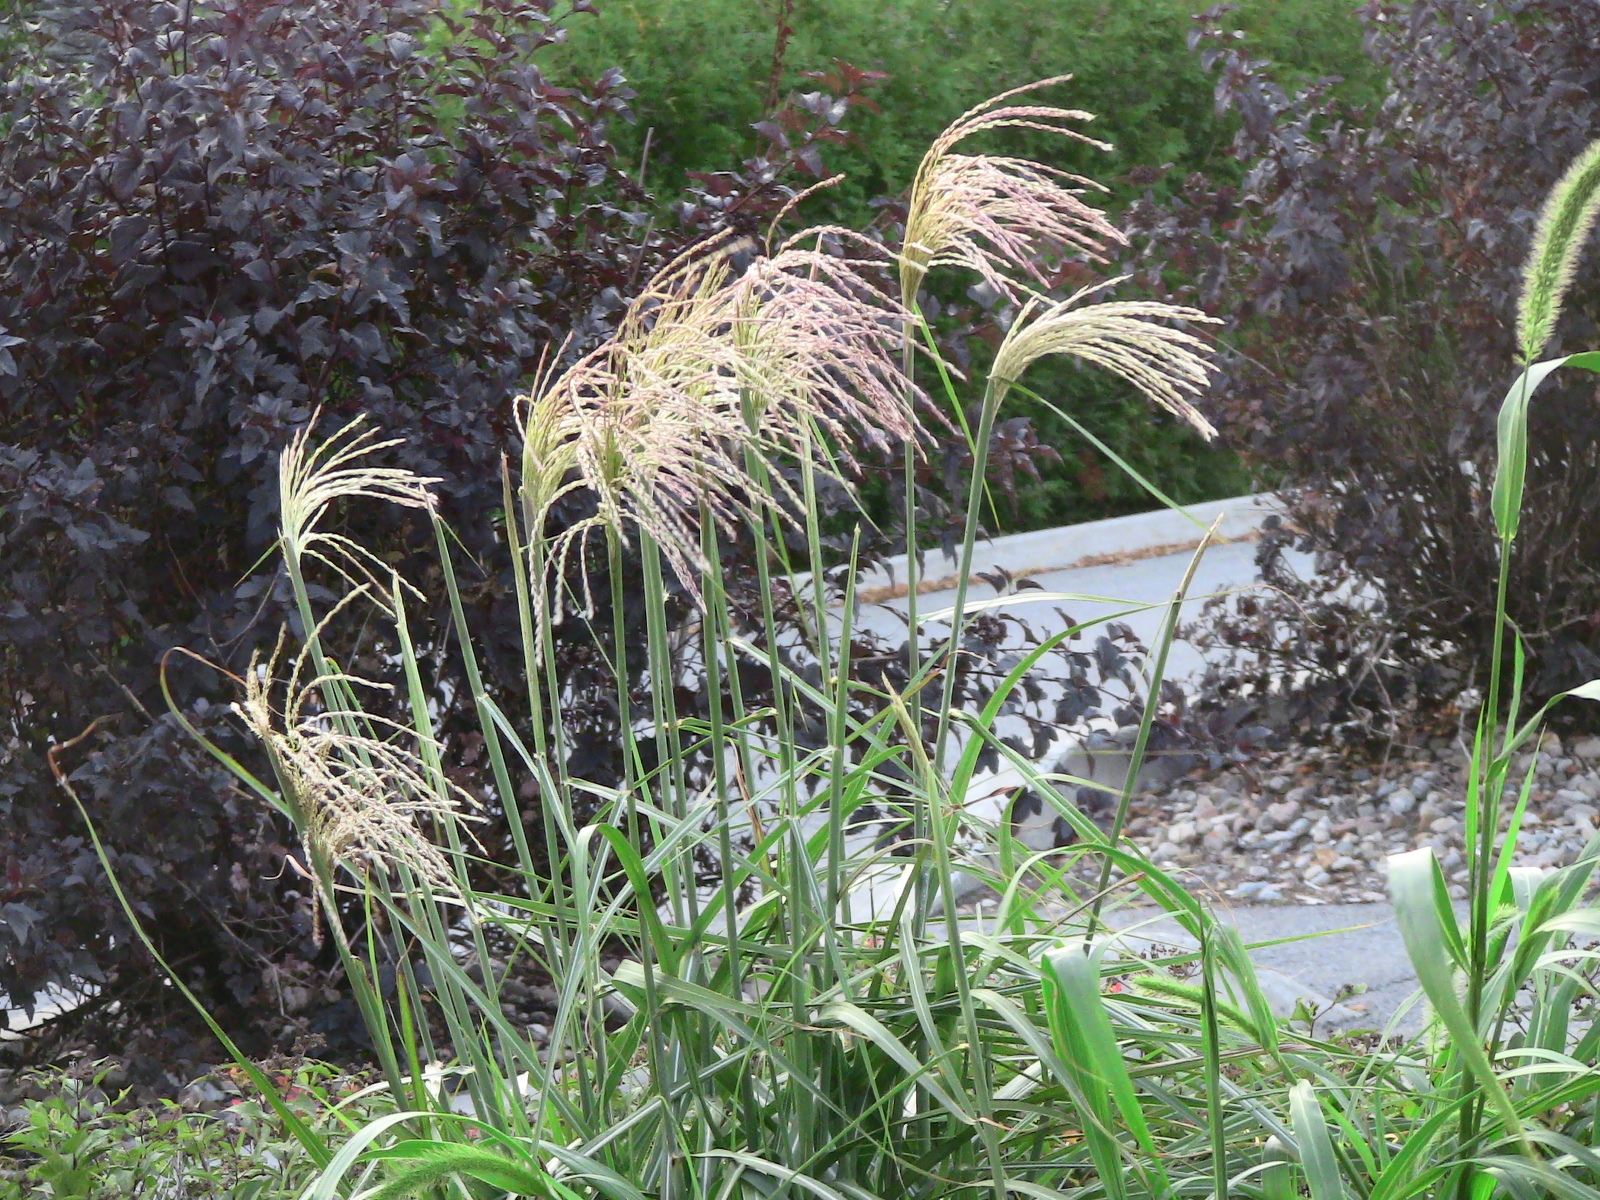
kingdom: Plantae
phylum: Tracheophyta
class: Liliopsida
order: Poales
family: Poaceae
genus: Miscanthus
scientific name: Miscanthus sinensis
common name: Chinese silvergrass
